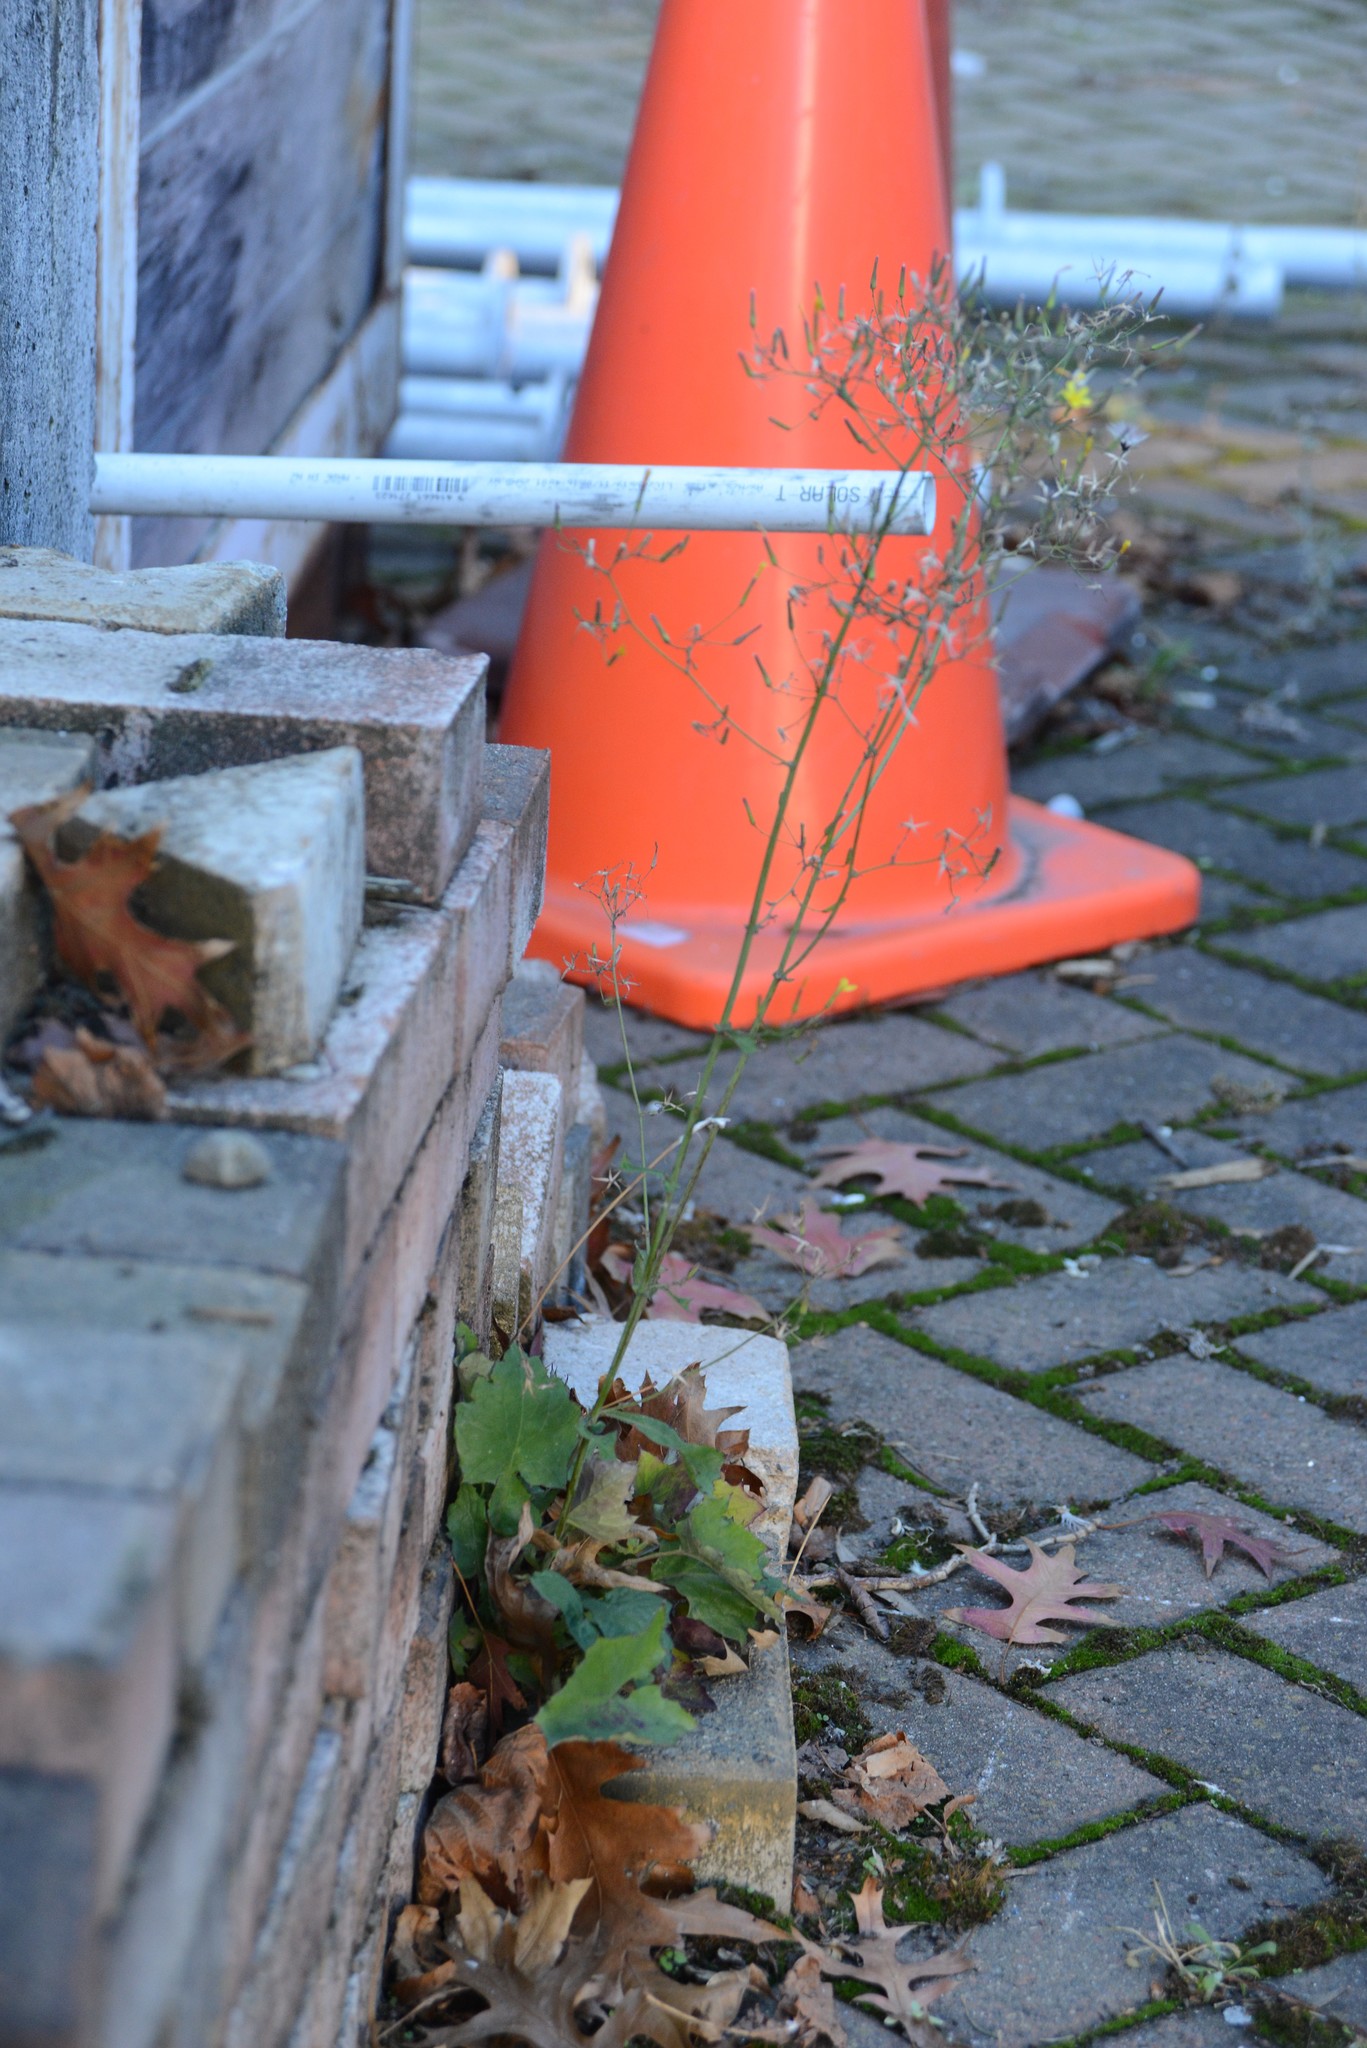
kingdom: Plantae
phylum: Tracheophyta
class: Magnoliopsida
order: Asterales
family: Asteraceae
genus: Mycelis
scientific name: Mycelis muralis
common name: Wall lettuce
